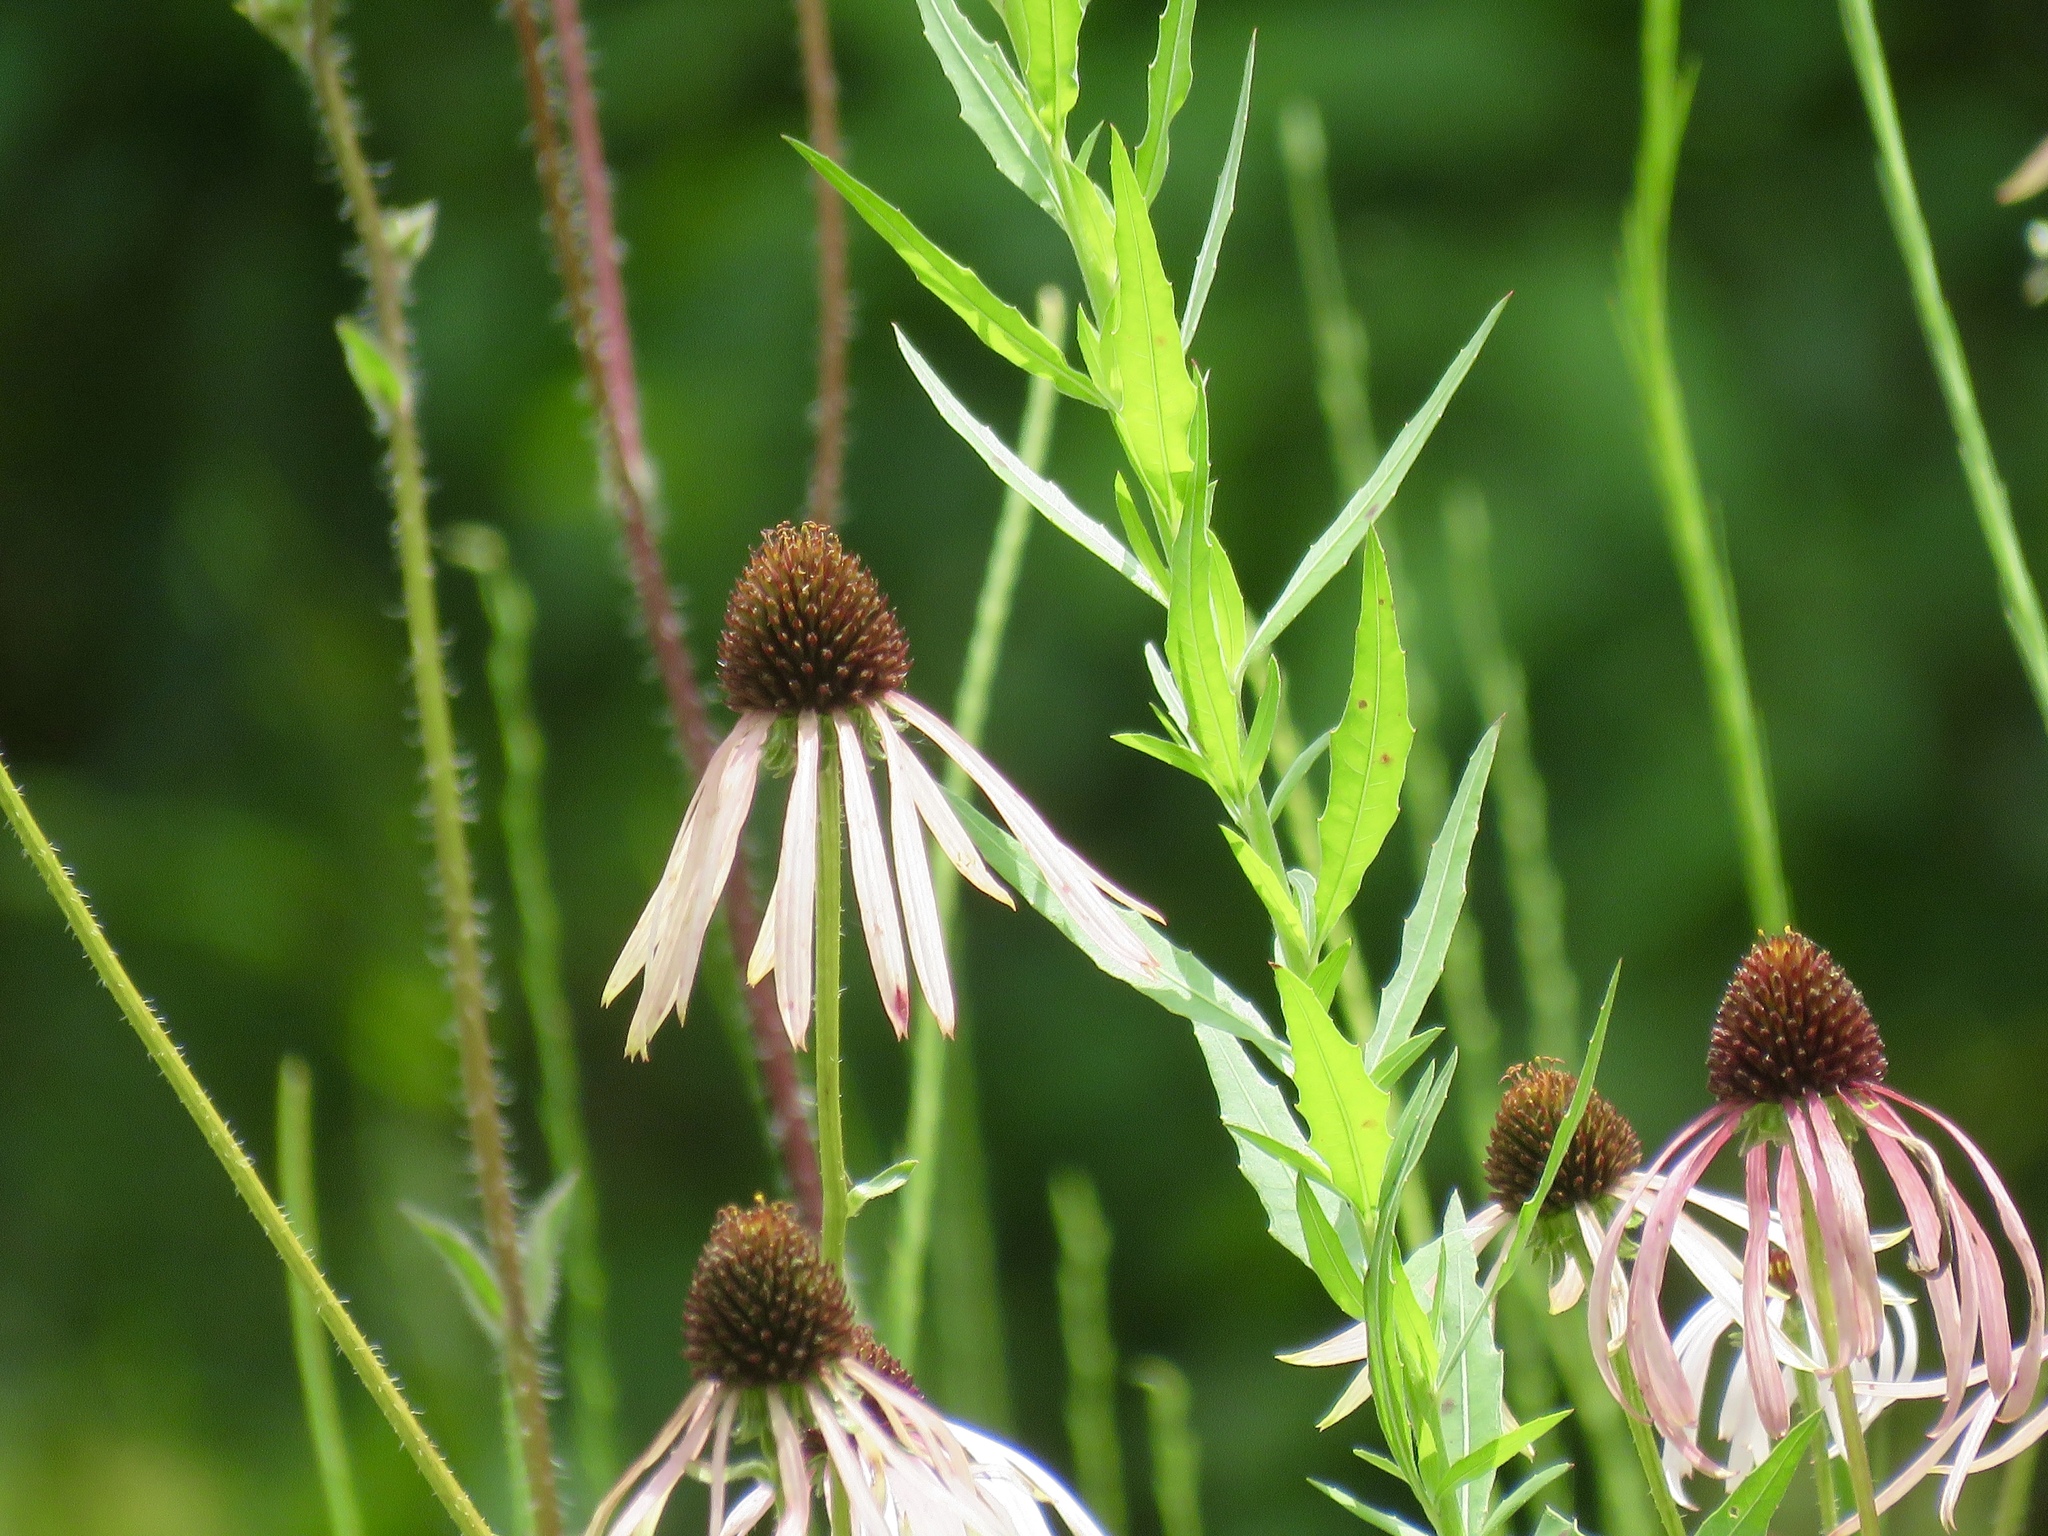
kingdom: Plantae
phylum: Tracheophyta
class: Magnoliopsida
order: Asterales
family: Asteraceae
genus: Echinacea
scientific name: Echinacea sanguinea
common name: Sanguine purple-coneflower
